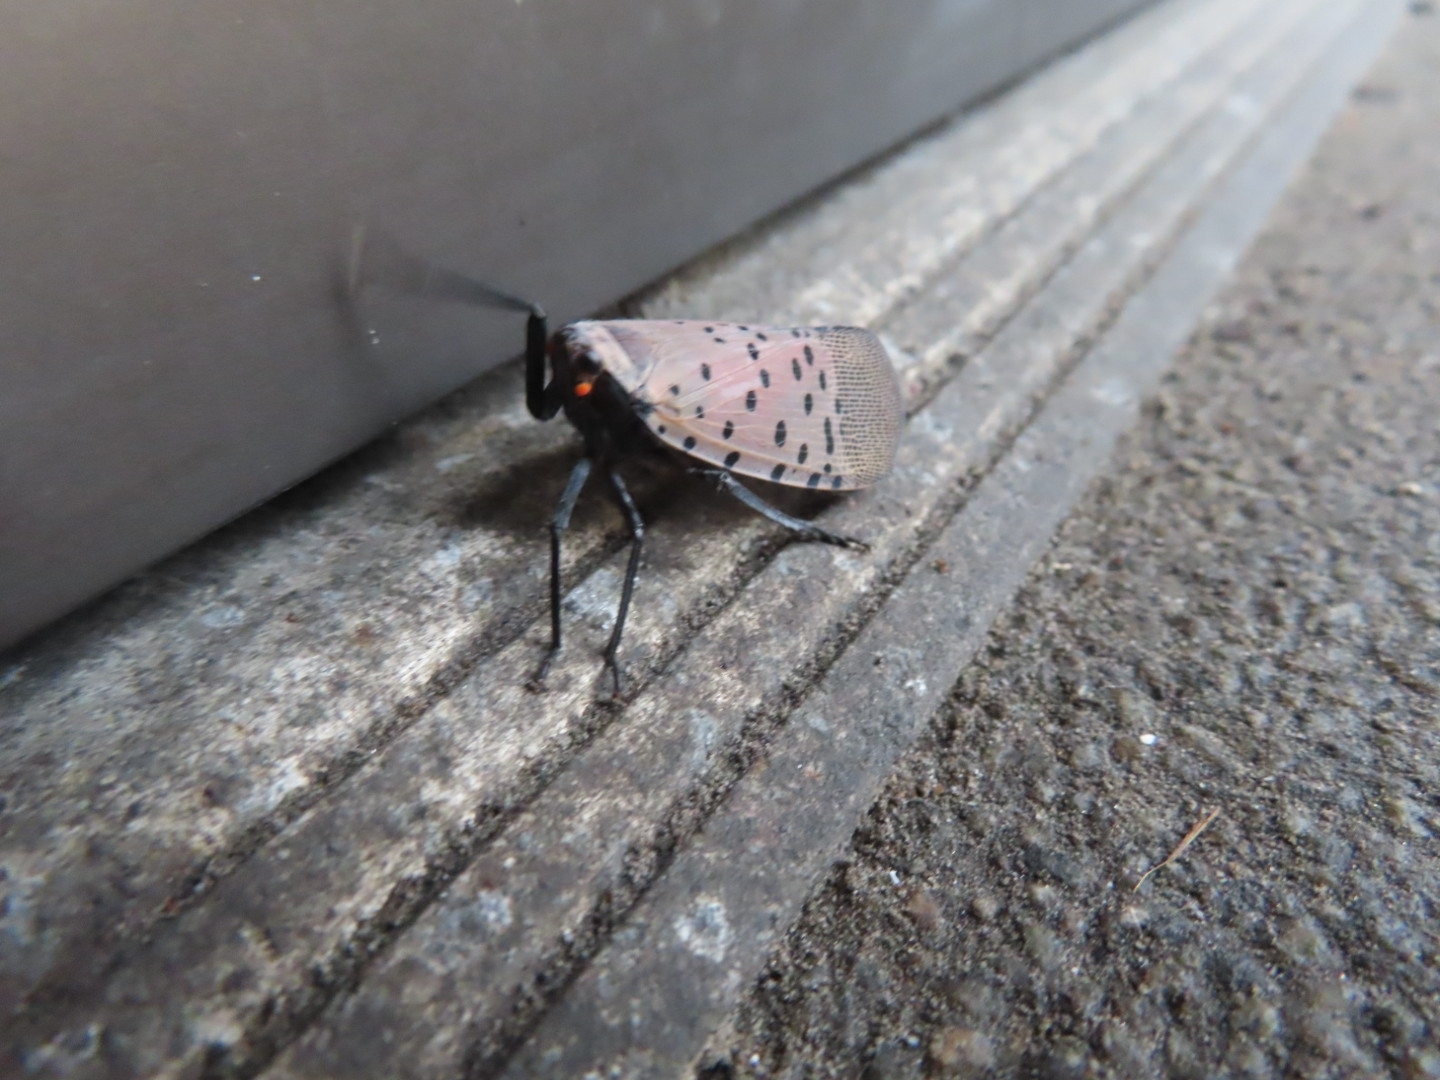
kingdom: Animalia
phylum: Arthropoda
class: Insecta
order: Hemiptera
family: Fulgoridae
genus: Lycorma
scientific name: Lycorma delicatula
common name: Spotted lanternfly
